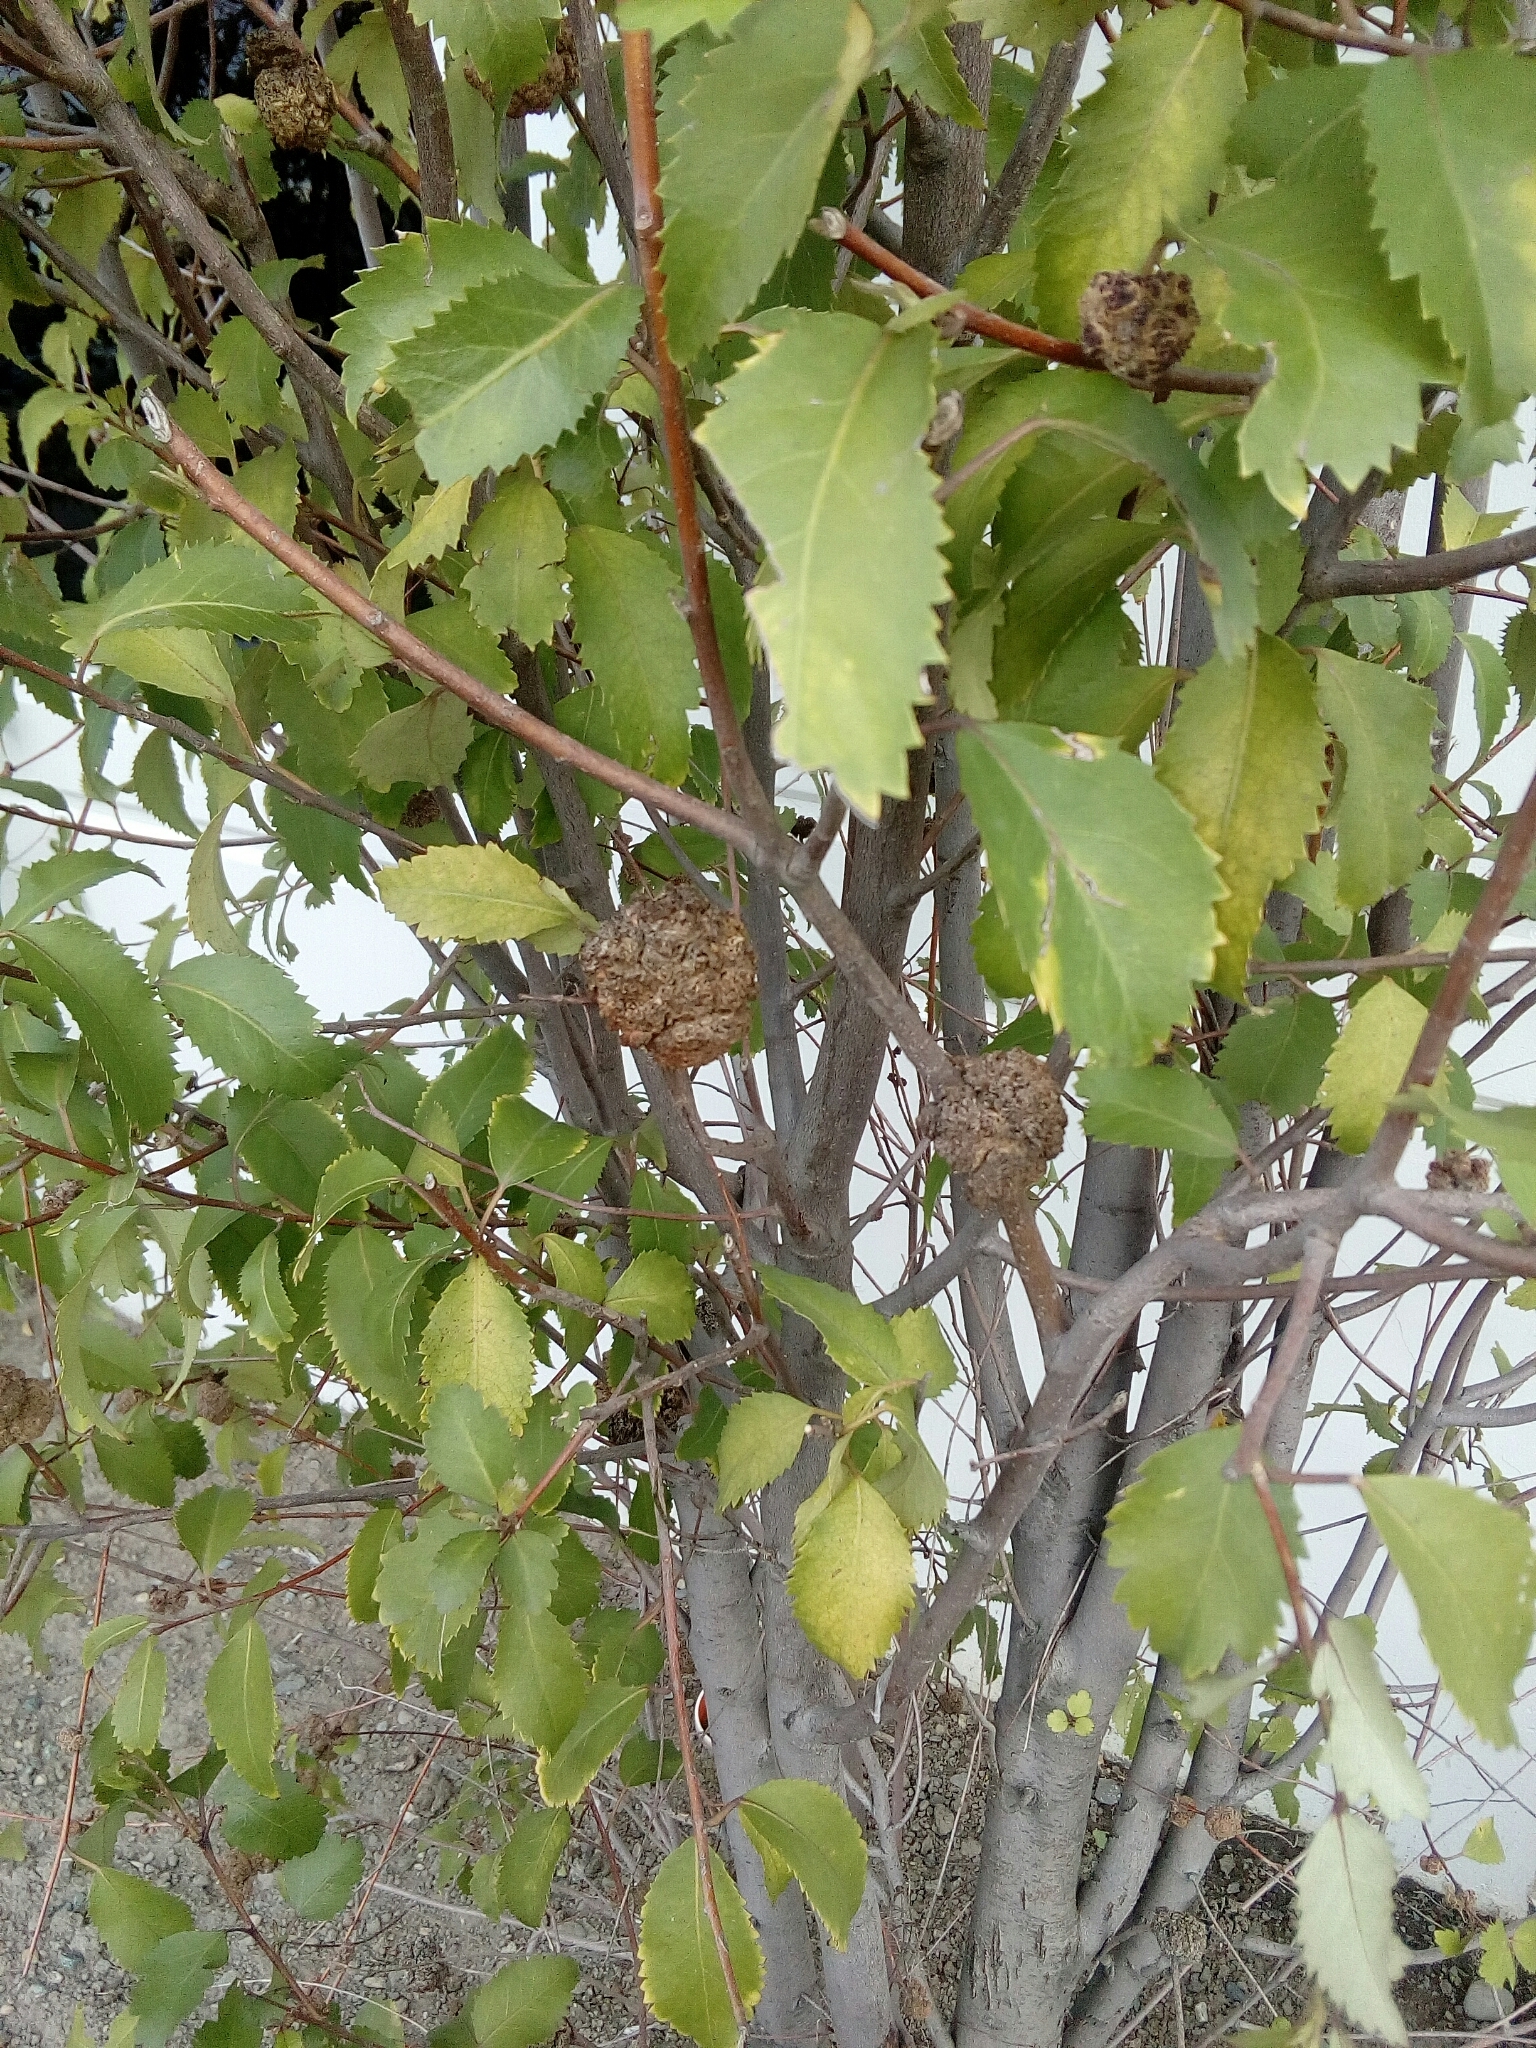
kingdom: Animalia
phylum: Arthropoda
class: Arachnida
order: Trombidiformes
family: Eriophyidae
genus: Eriophyes
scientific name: Eriophyes hoheriae
